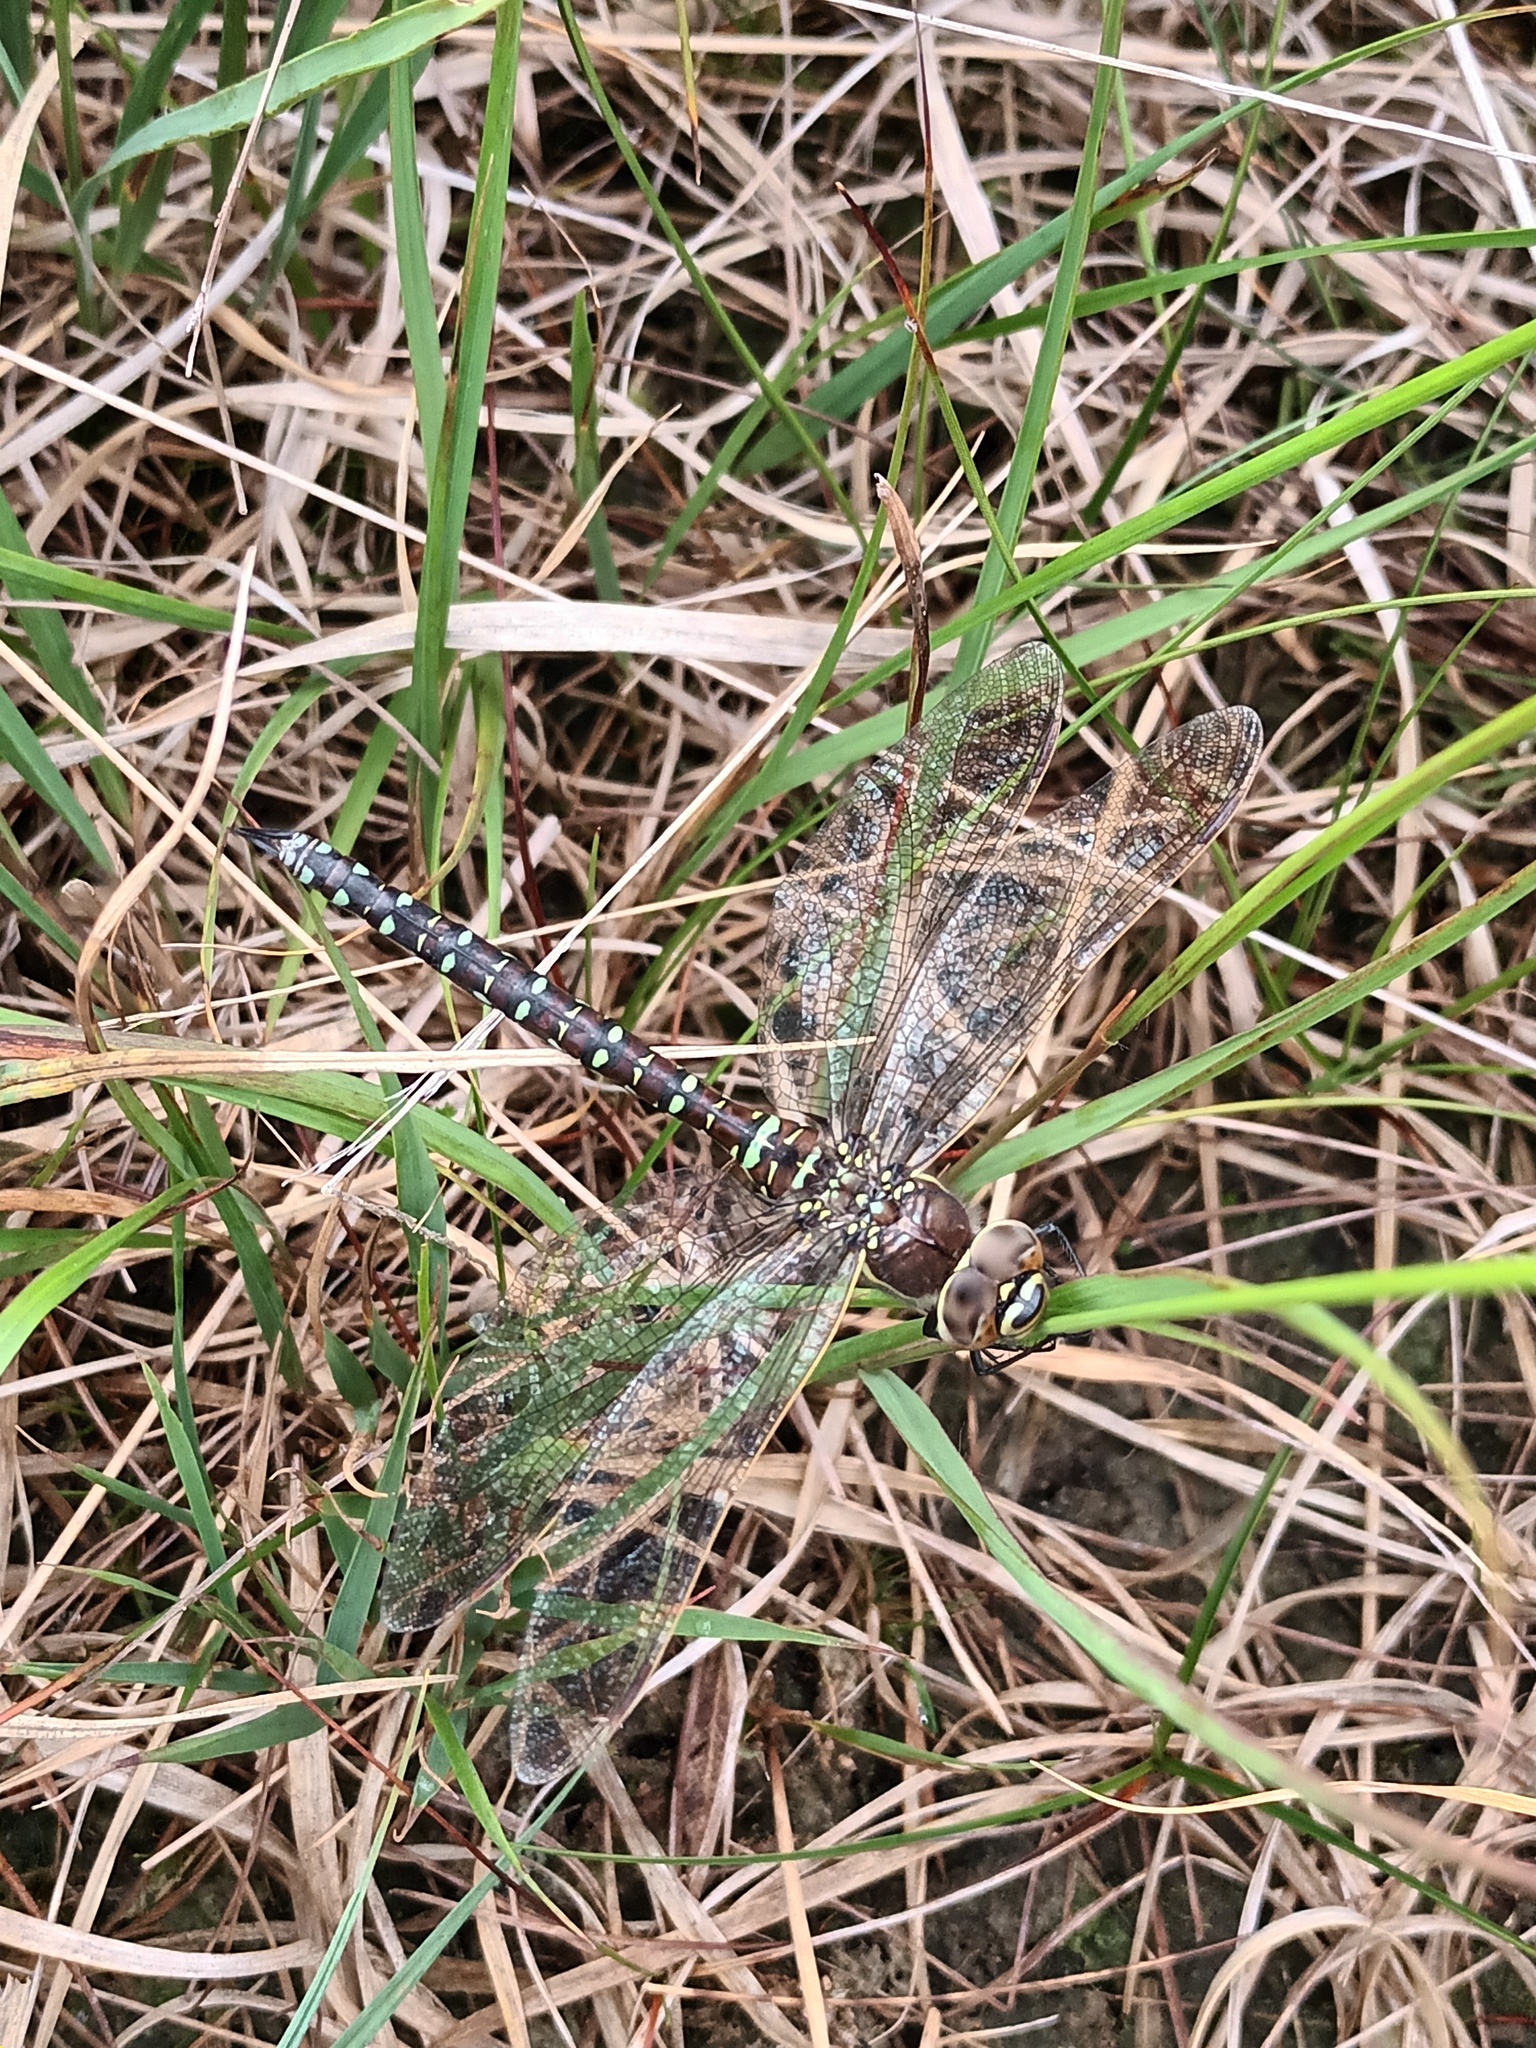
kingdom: Animalia
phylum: Arthropoda
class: Insecta
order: Odonata
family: Aeshnidae
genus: Aeshna
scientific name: Aeshna juncea
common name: Moorland hawker
